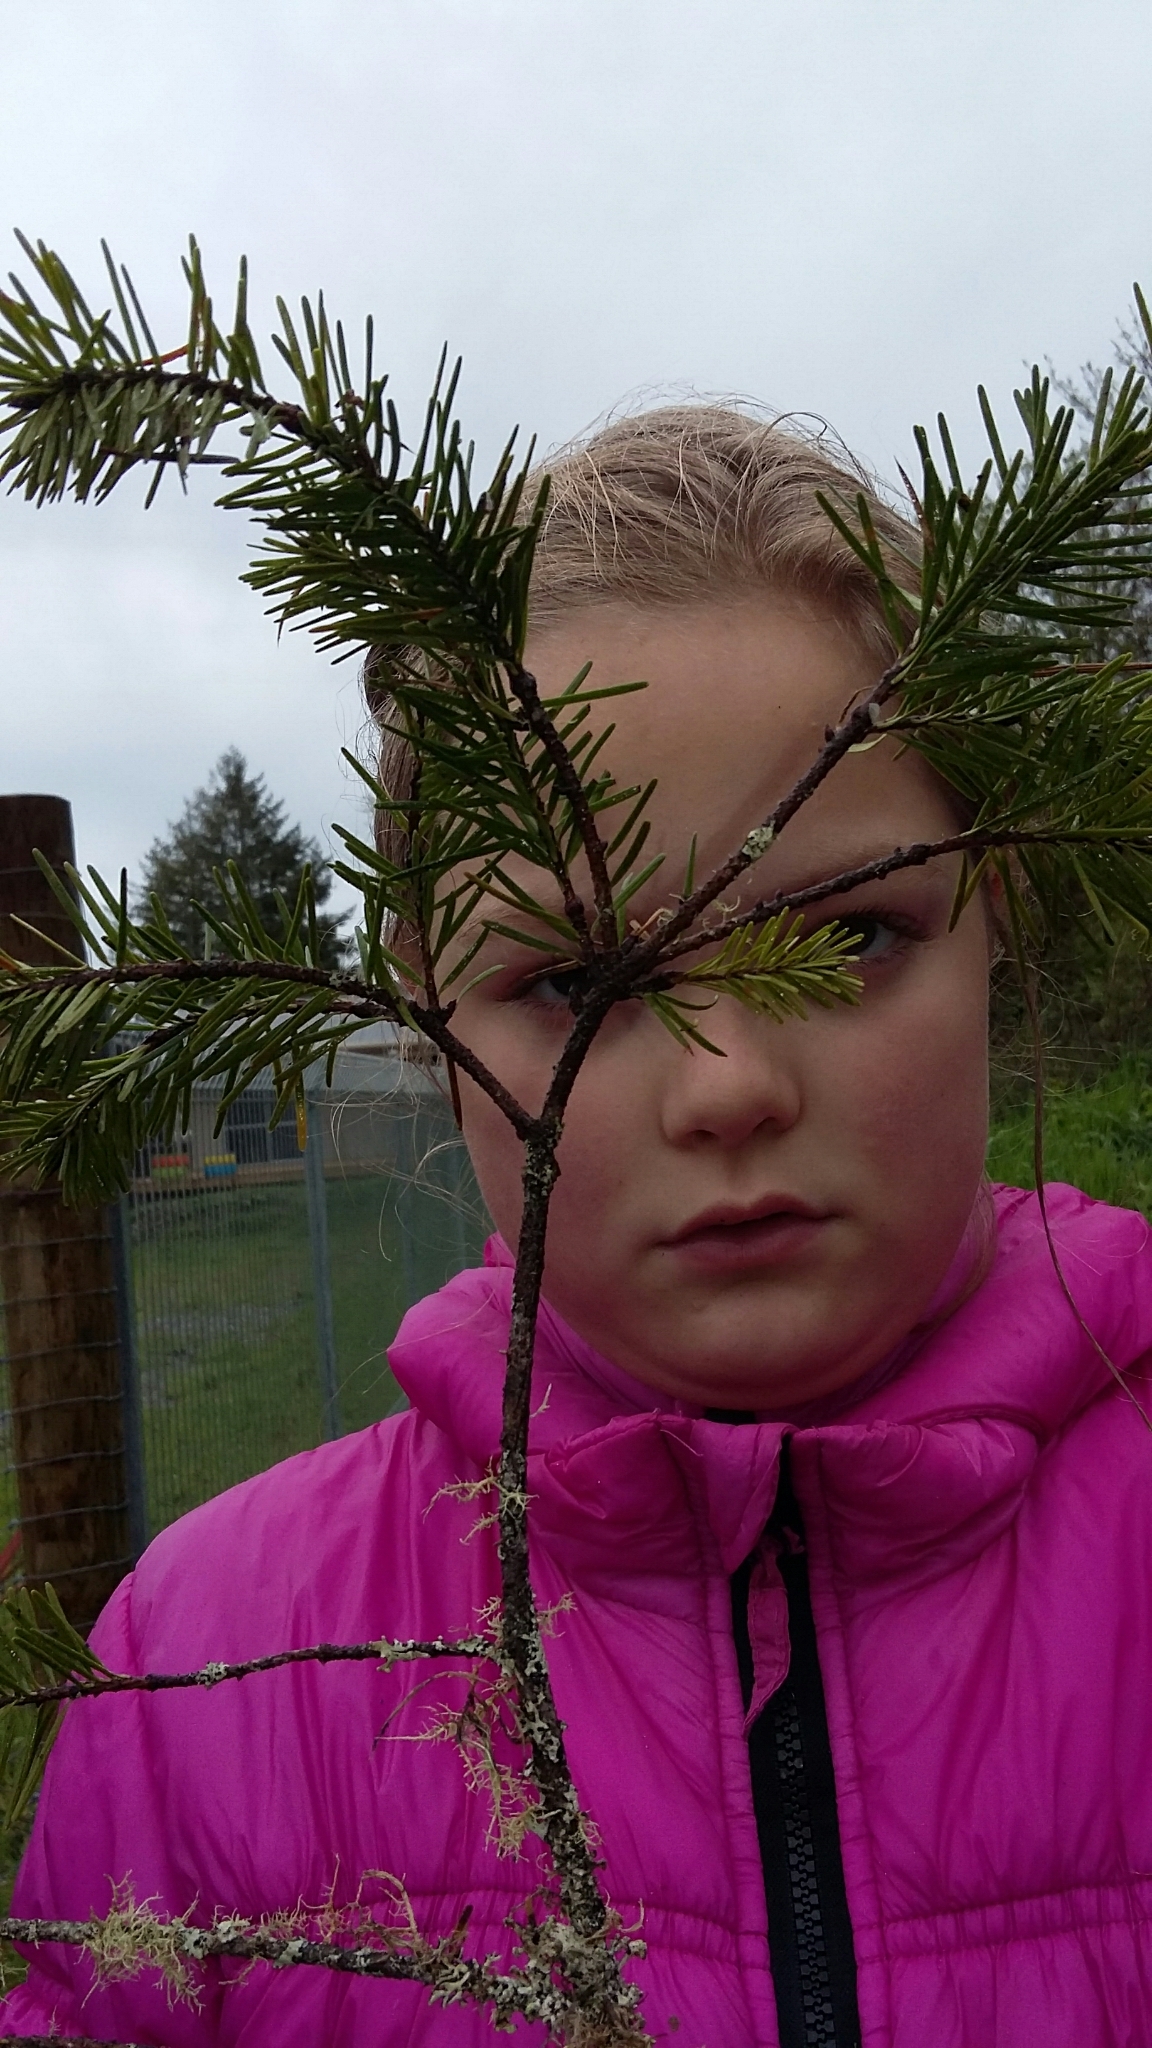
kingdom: Plantae
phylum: Tracheophyta
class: Pinopsida
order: Pinales
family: Pinaceae
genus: Pseudotsuga
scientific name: Pseudotsuga menziesii
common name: Douglas fir
